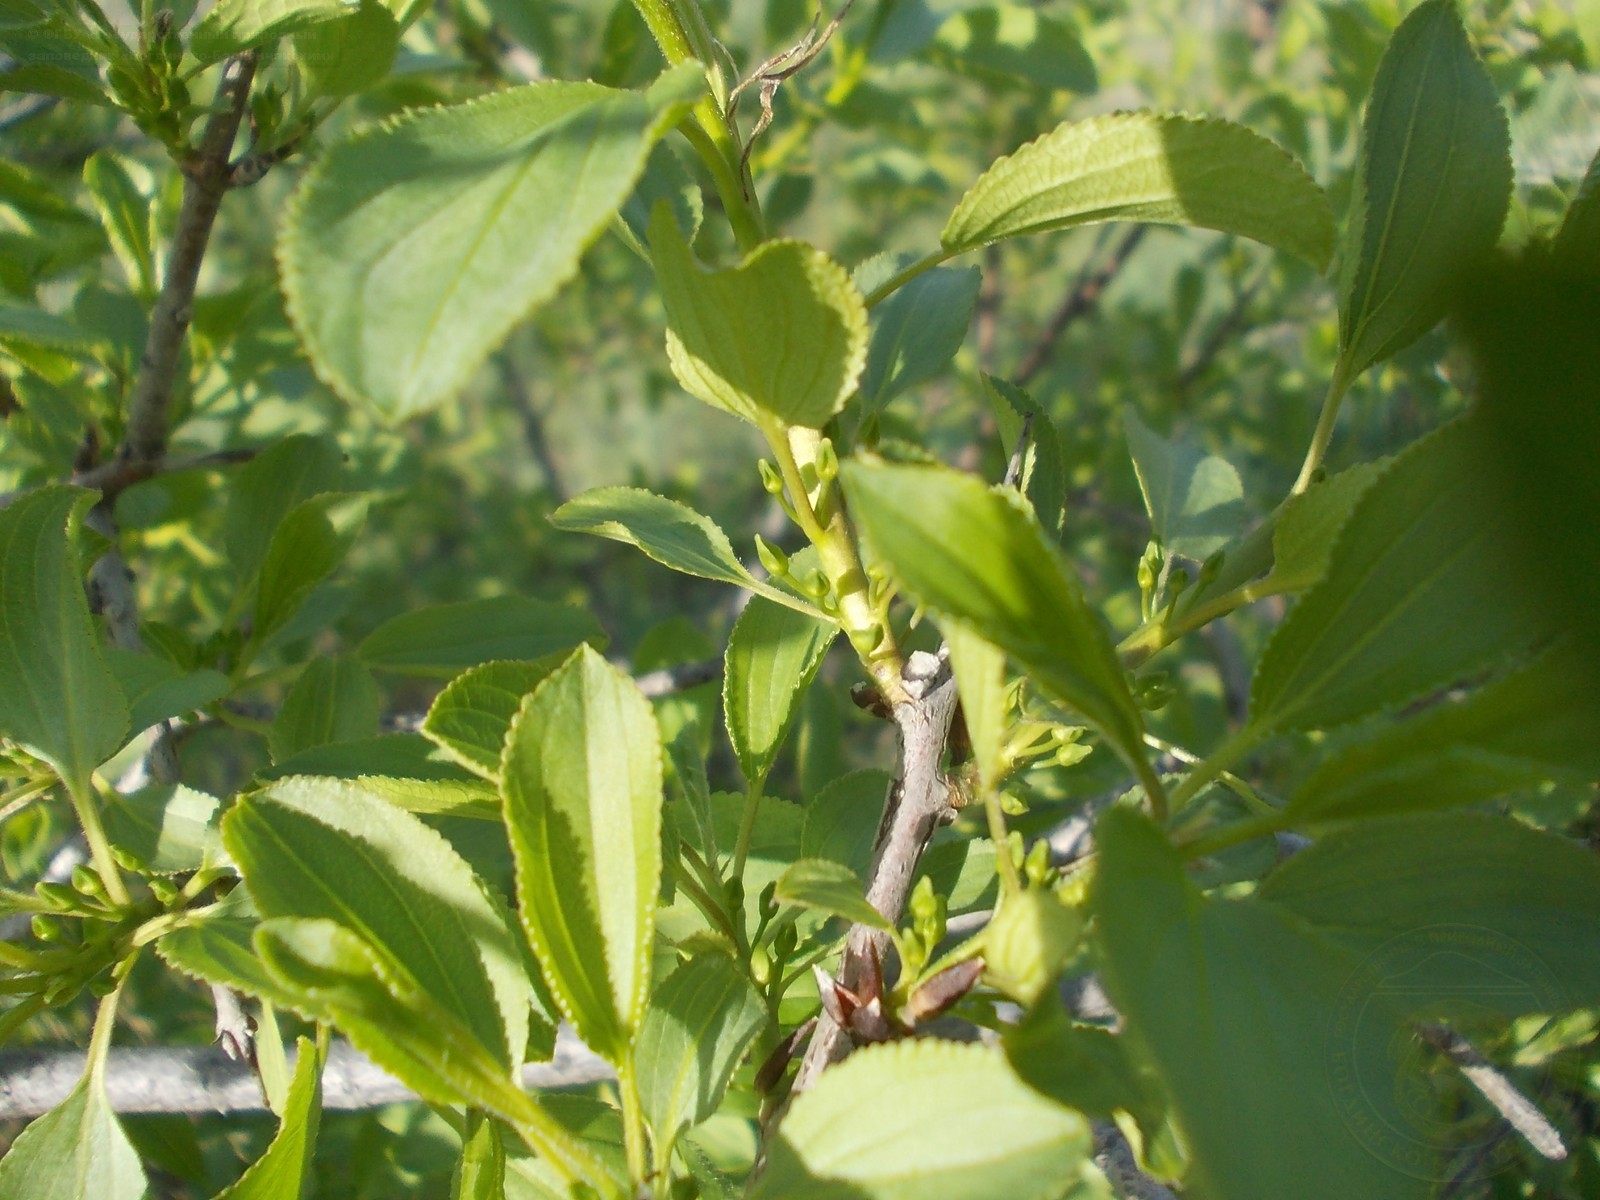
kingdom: Plantae
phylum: Tracheophyta
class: Magnoliopsida
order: Rosales
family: Rhamnaceae
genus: Rhamnus
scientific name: Rhamnus cathartica
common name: Common buckthorn
